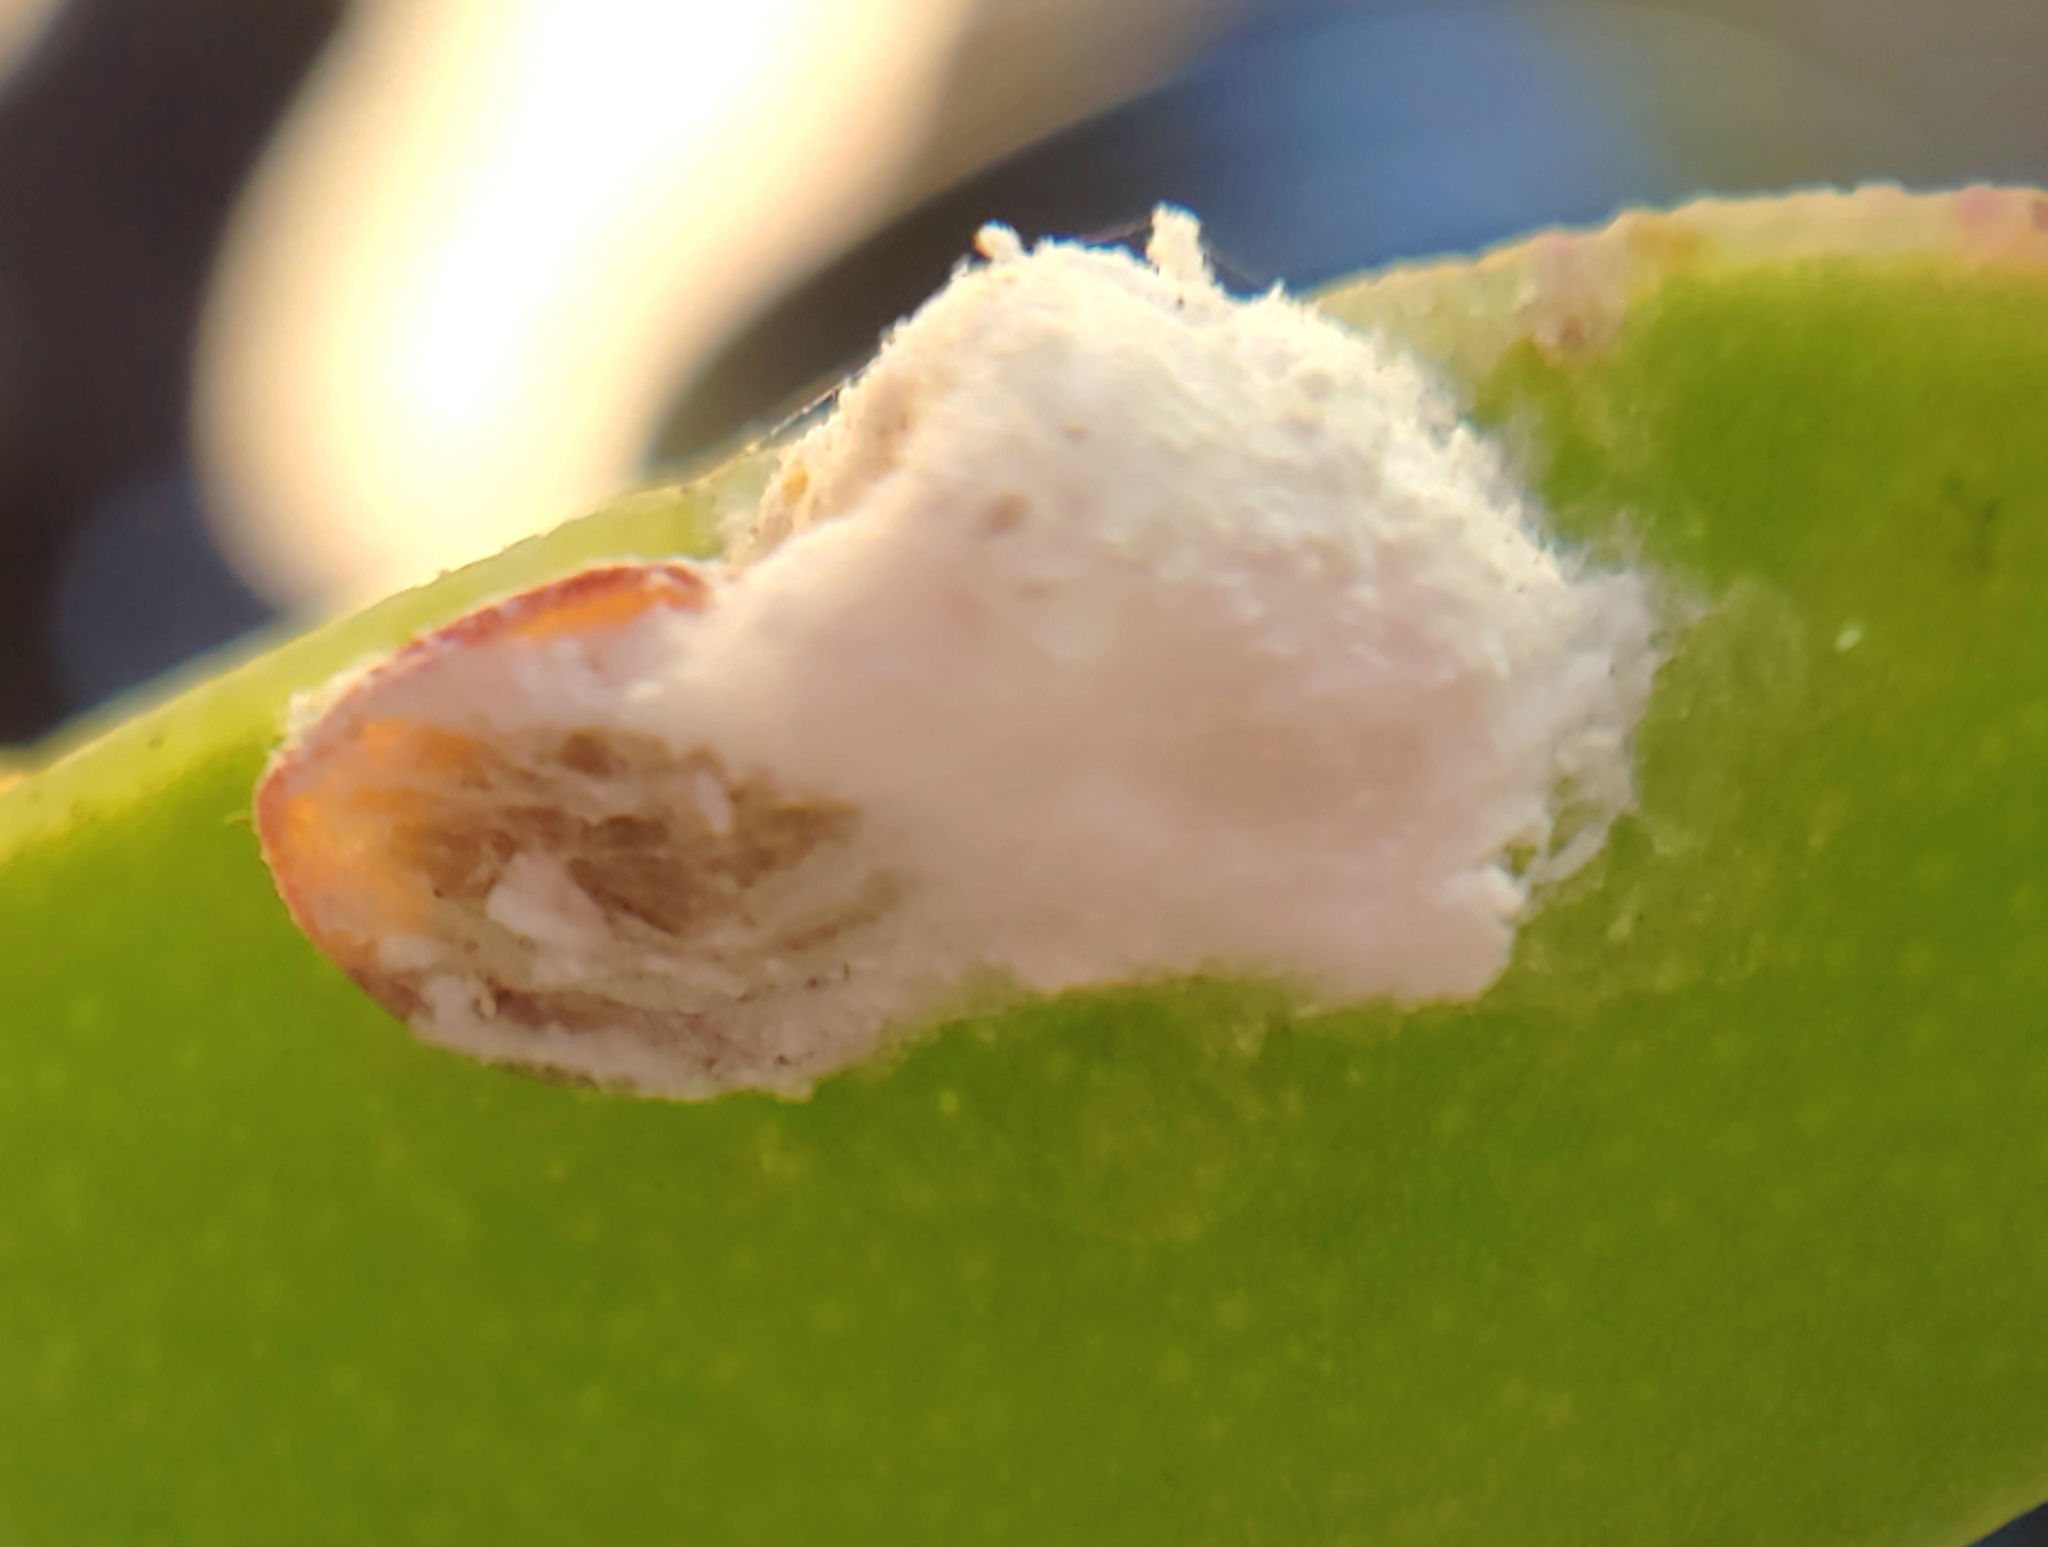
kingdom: Animalia
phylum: Arthropoda
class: Insecta
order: Hemiptera
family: Coccidae
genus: Pulvinariella
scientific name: Pulvinariella mesembryanthemi
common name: Cottony pigface scale
